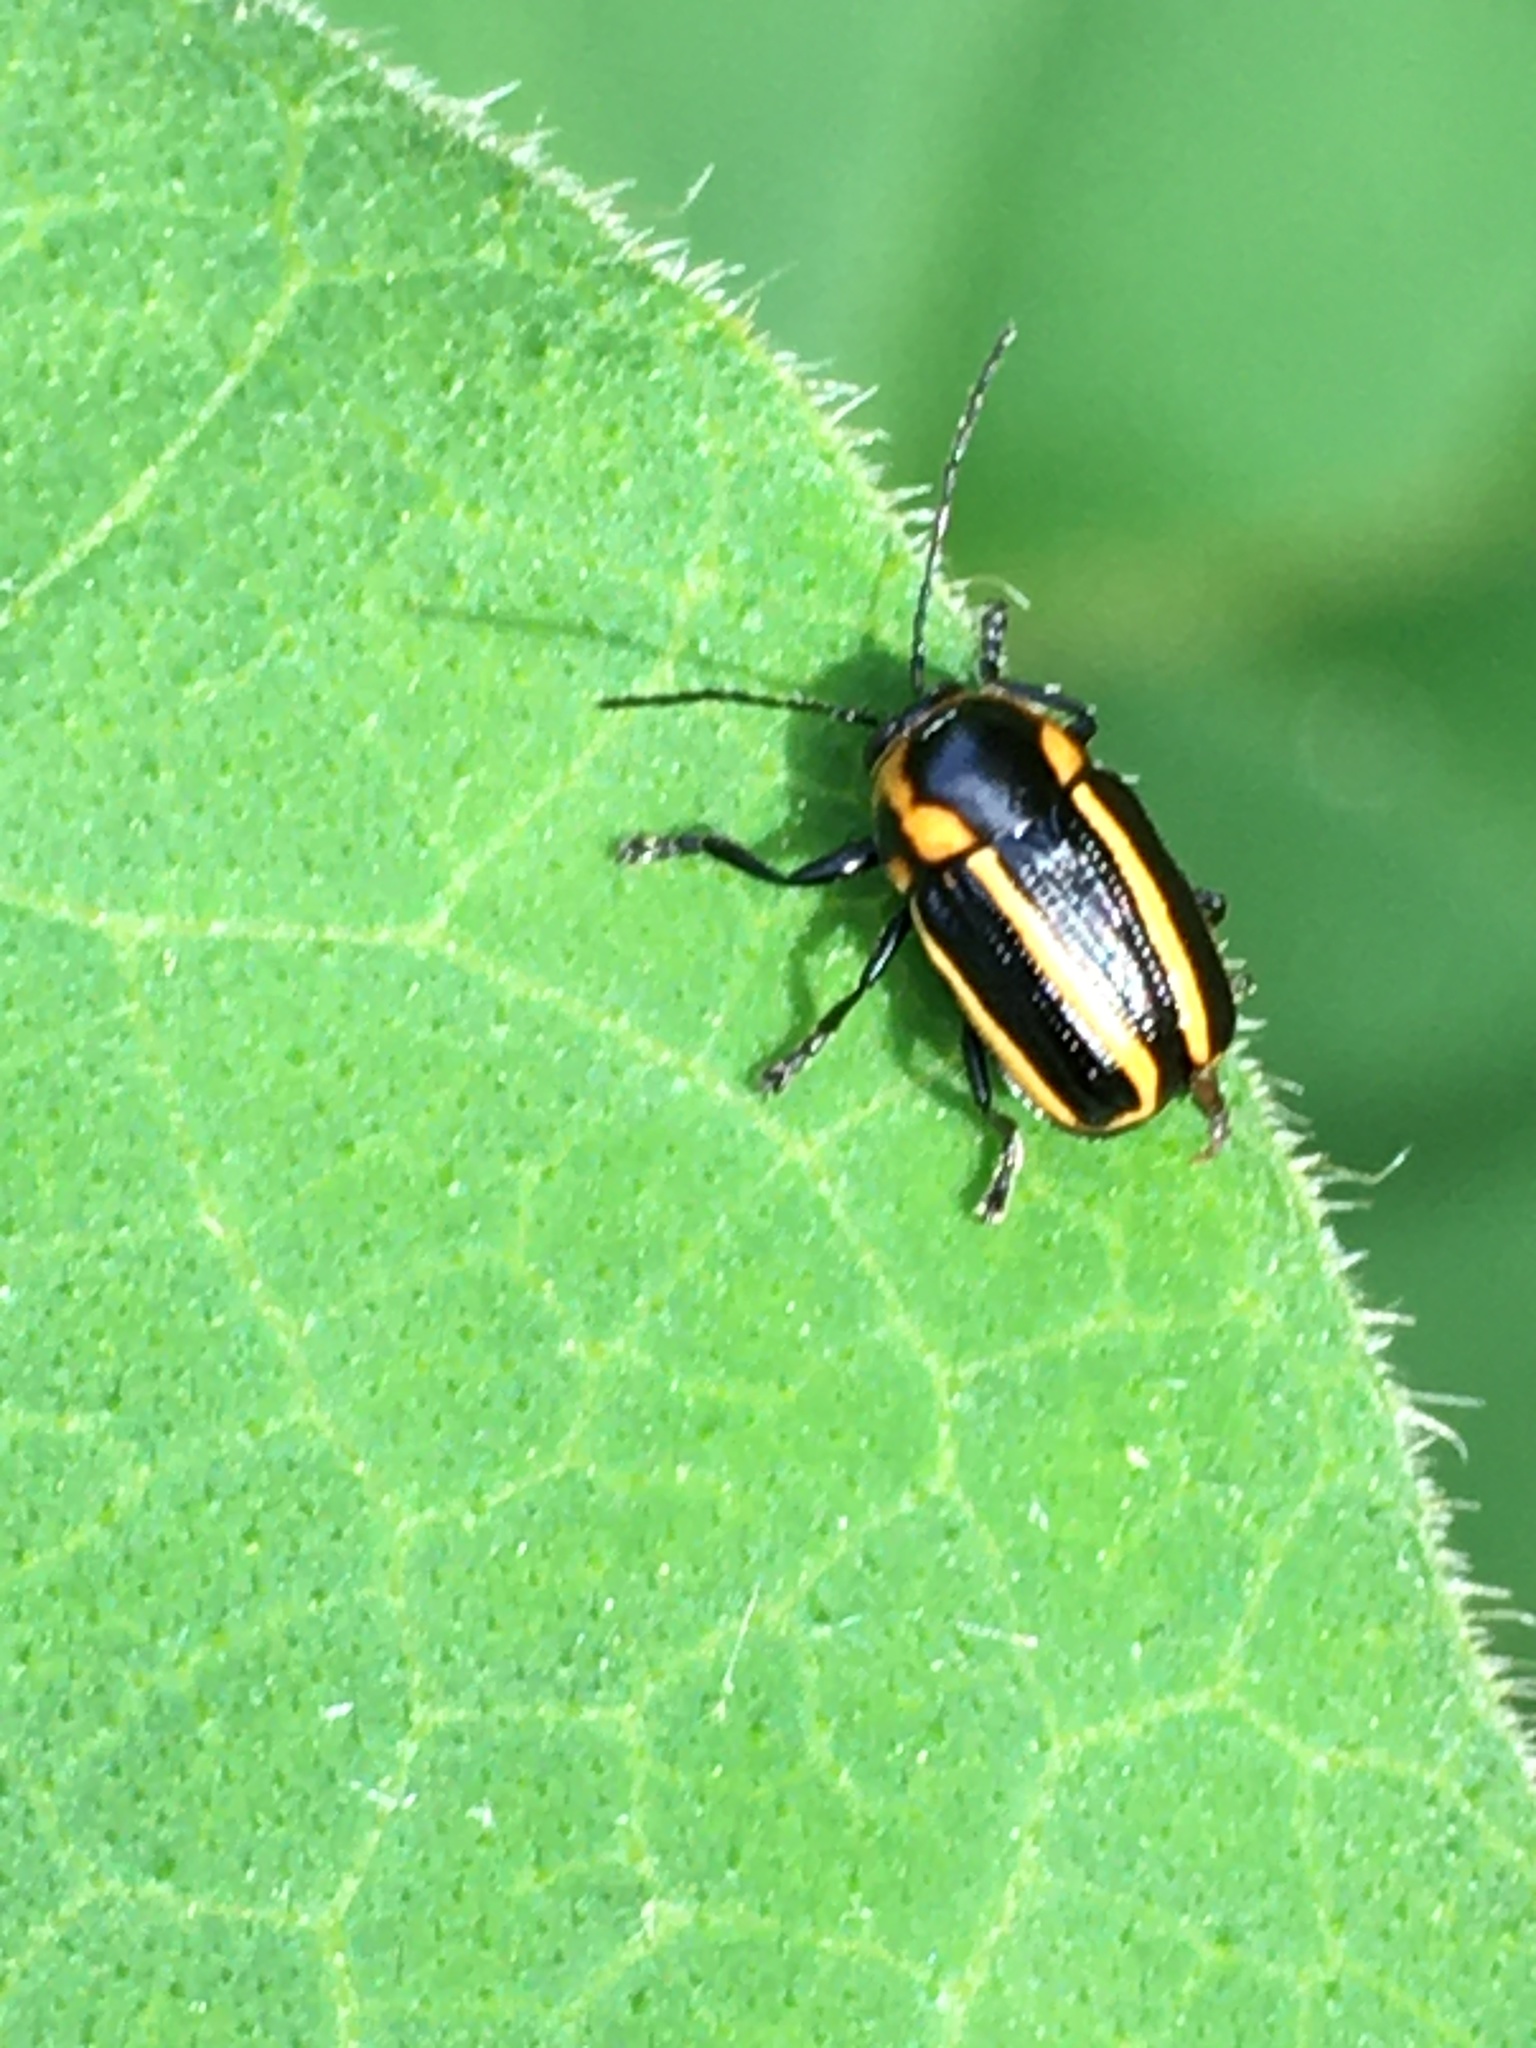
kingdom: Animalia
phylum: Arthropoda
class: Insecta
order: Coleoptera
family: Chrysomelidae
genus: Bassareus
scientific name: Bassareus lituratus
